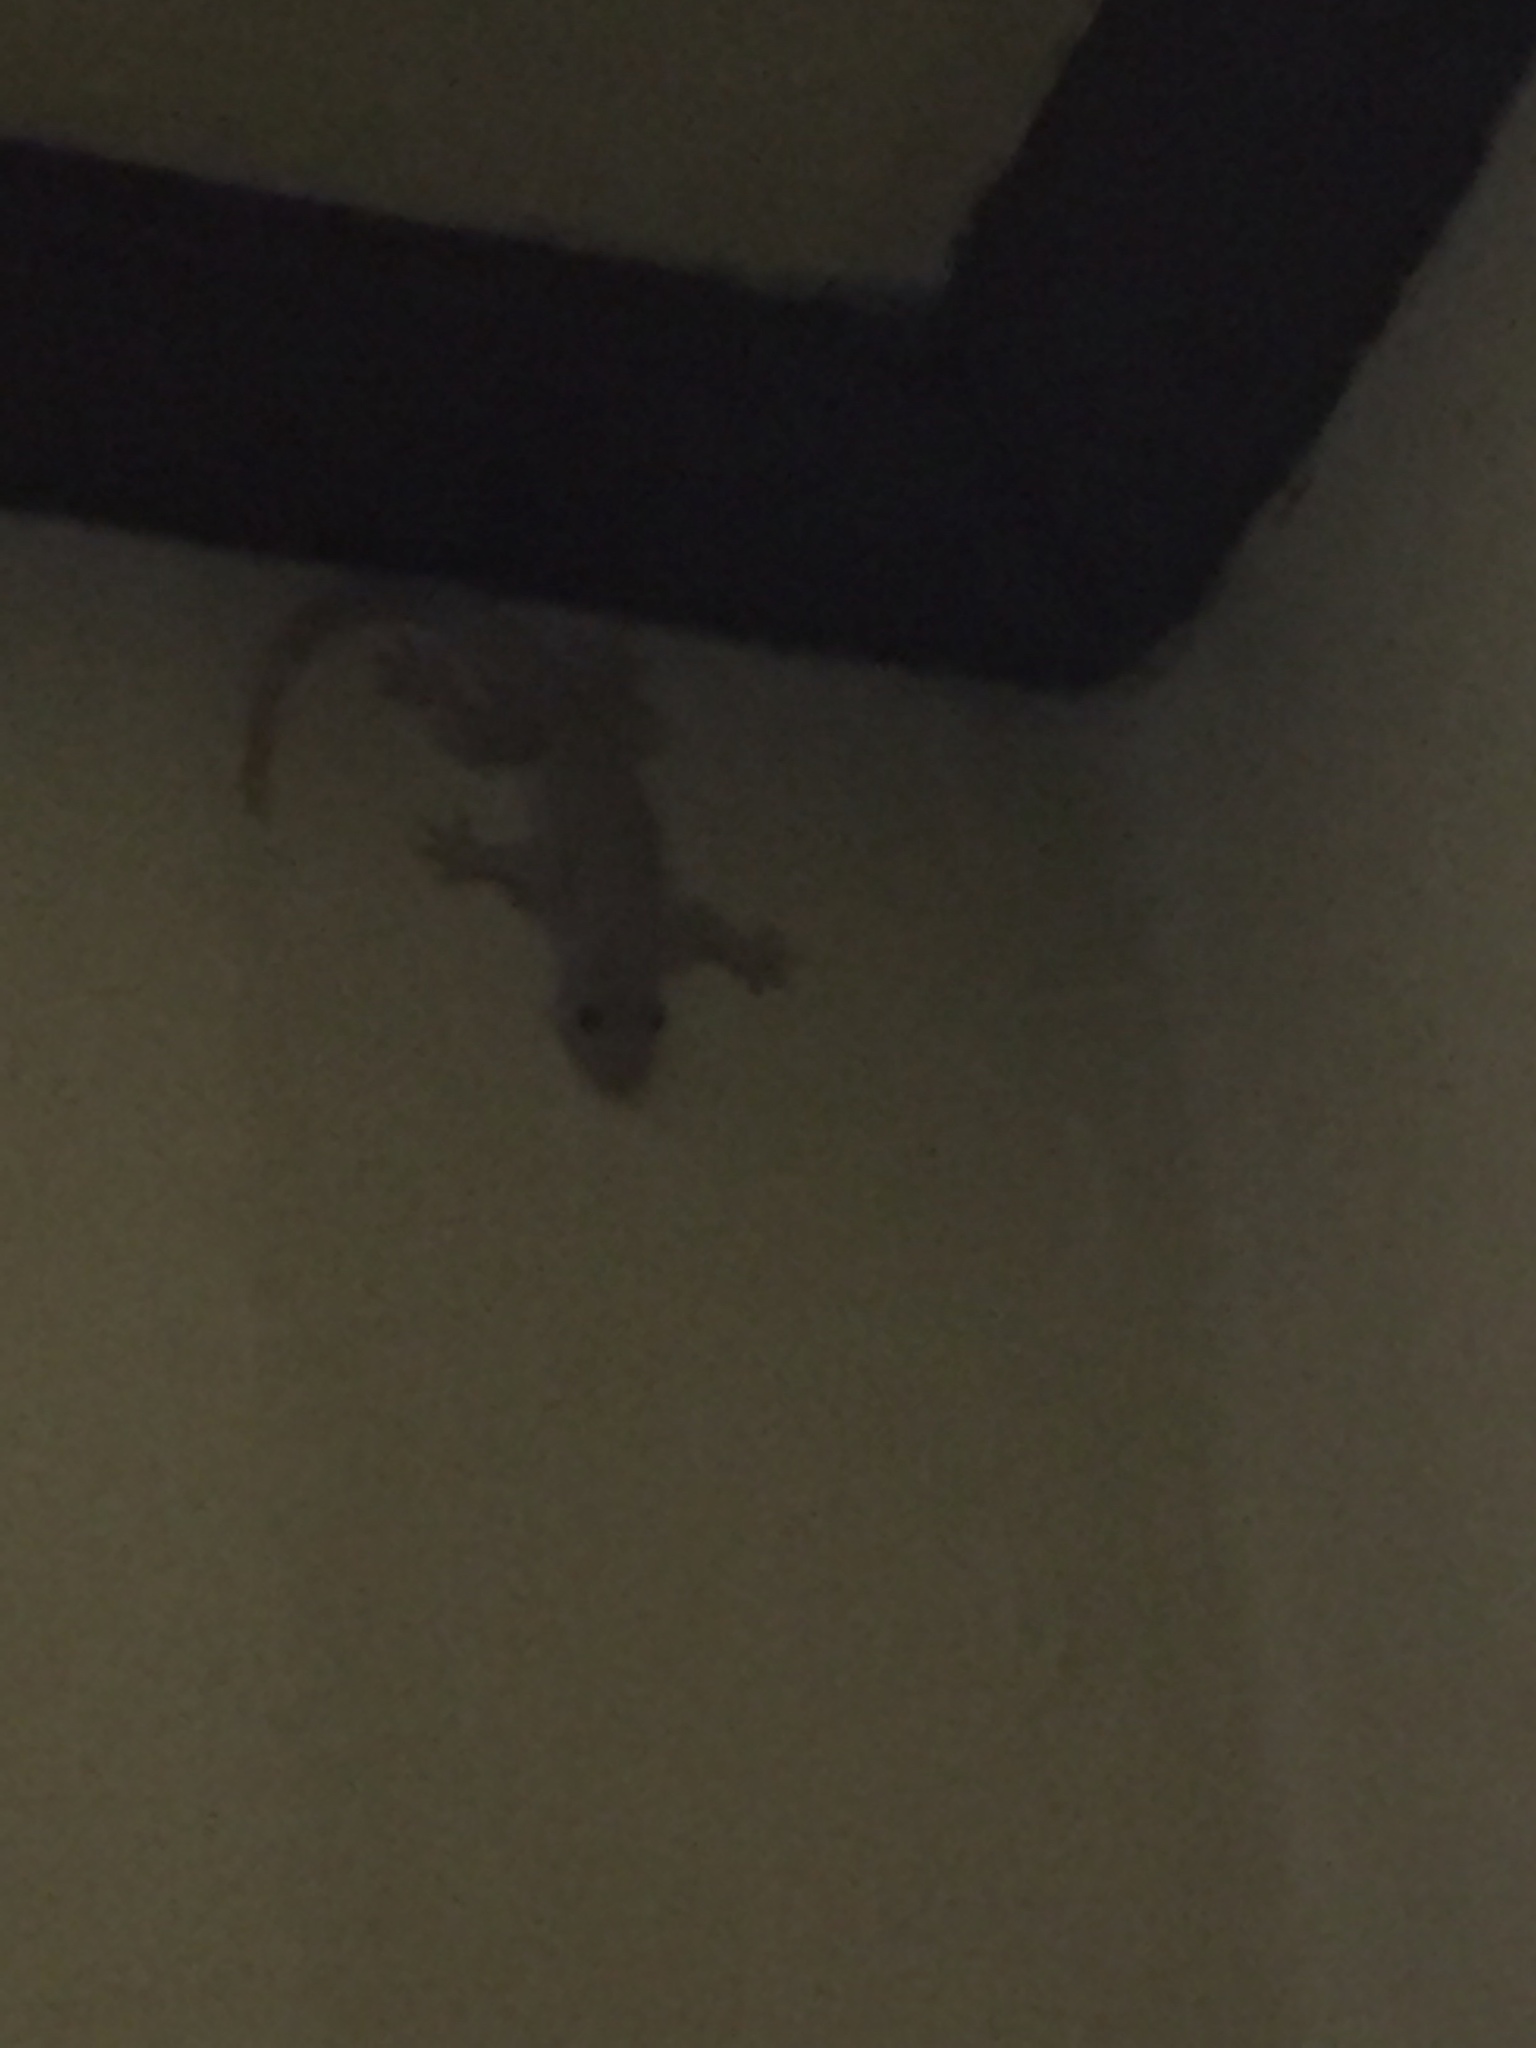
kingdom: Animalia
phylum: Chordata
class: Squamata
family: Gekkonidae
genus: Hemidactylus
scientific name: Hemidactylus platyurus
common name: Flat-tailed house gecko
